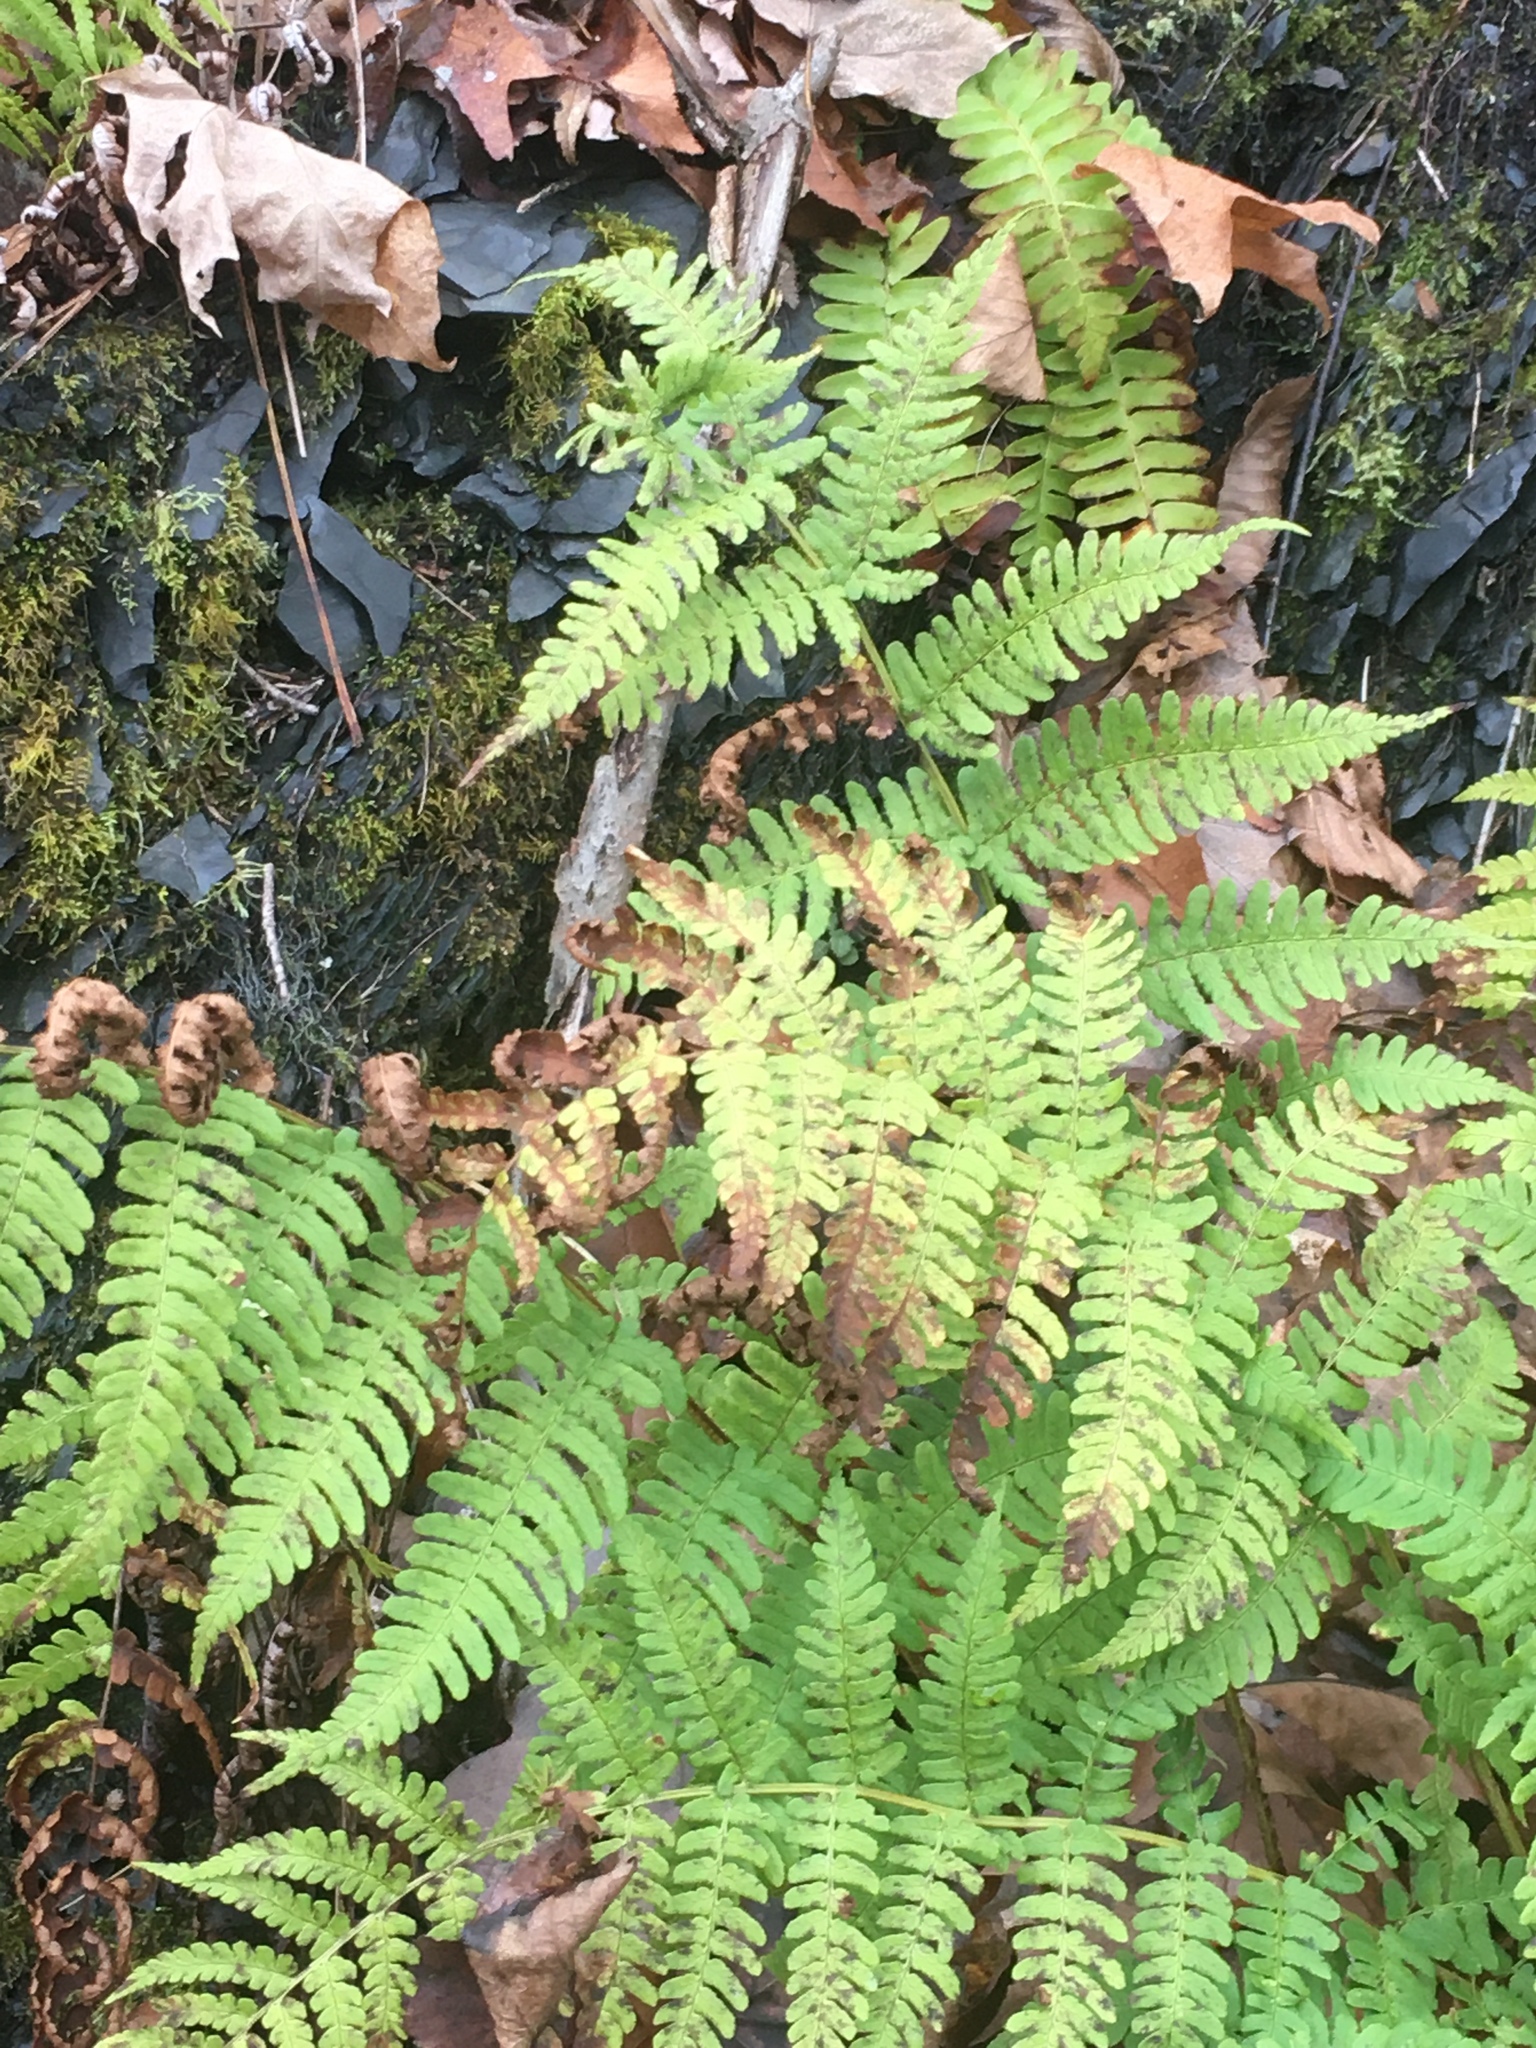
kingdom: Plantae
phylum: Tracheophyta
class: Polypodiopsida
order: Polypodiales
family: Dryopteridaceae
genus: Dryopteris
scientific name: Dryopteris marginalis
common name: Marginal wood fern
